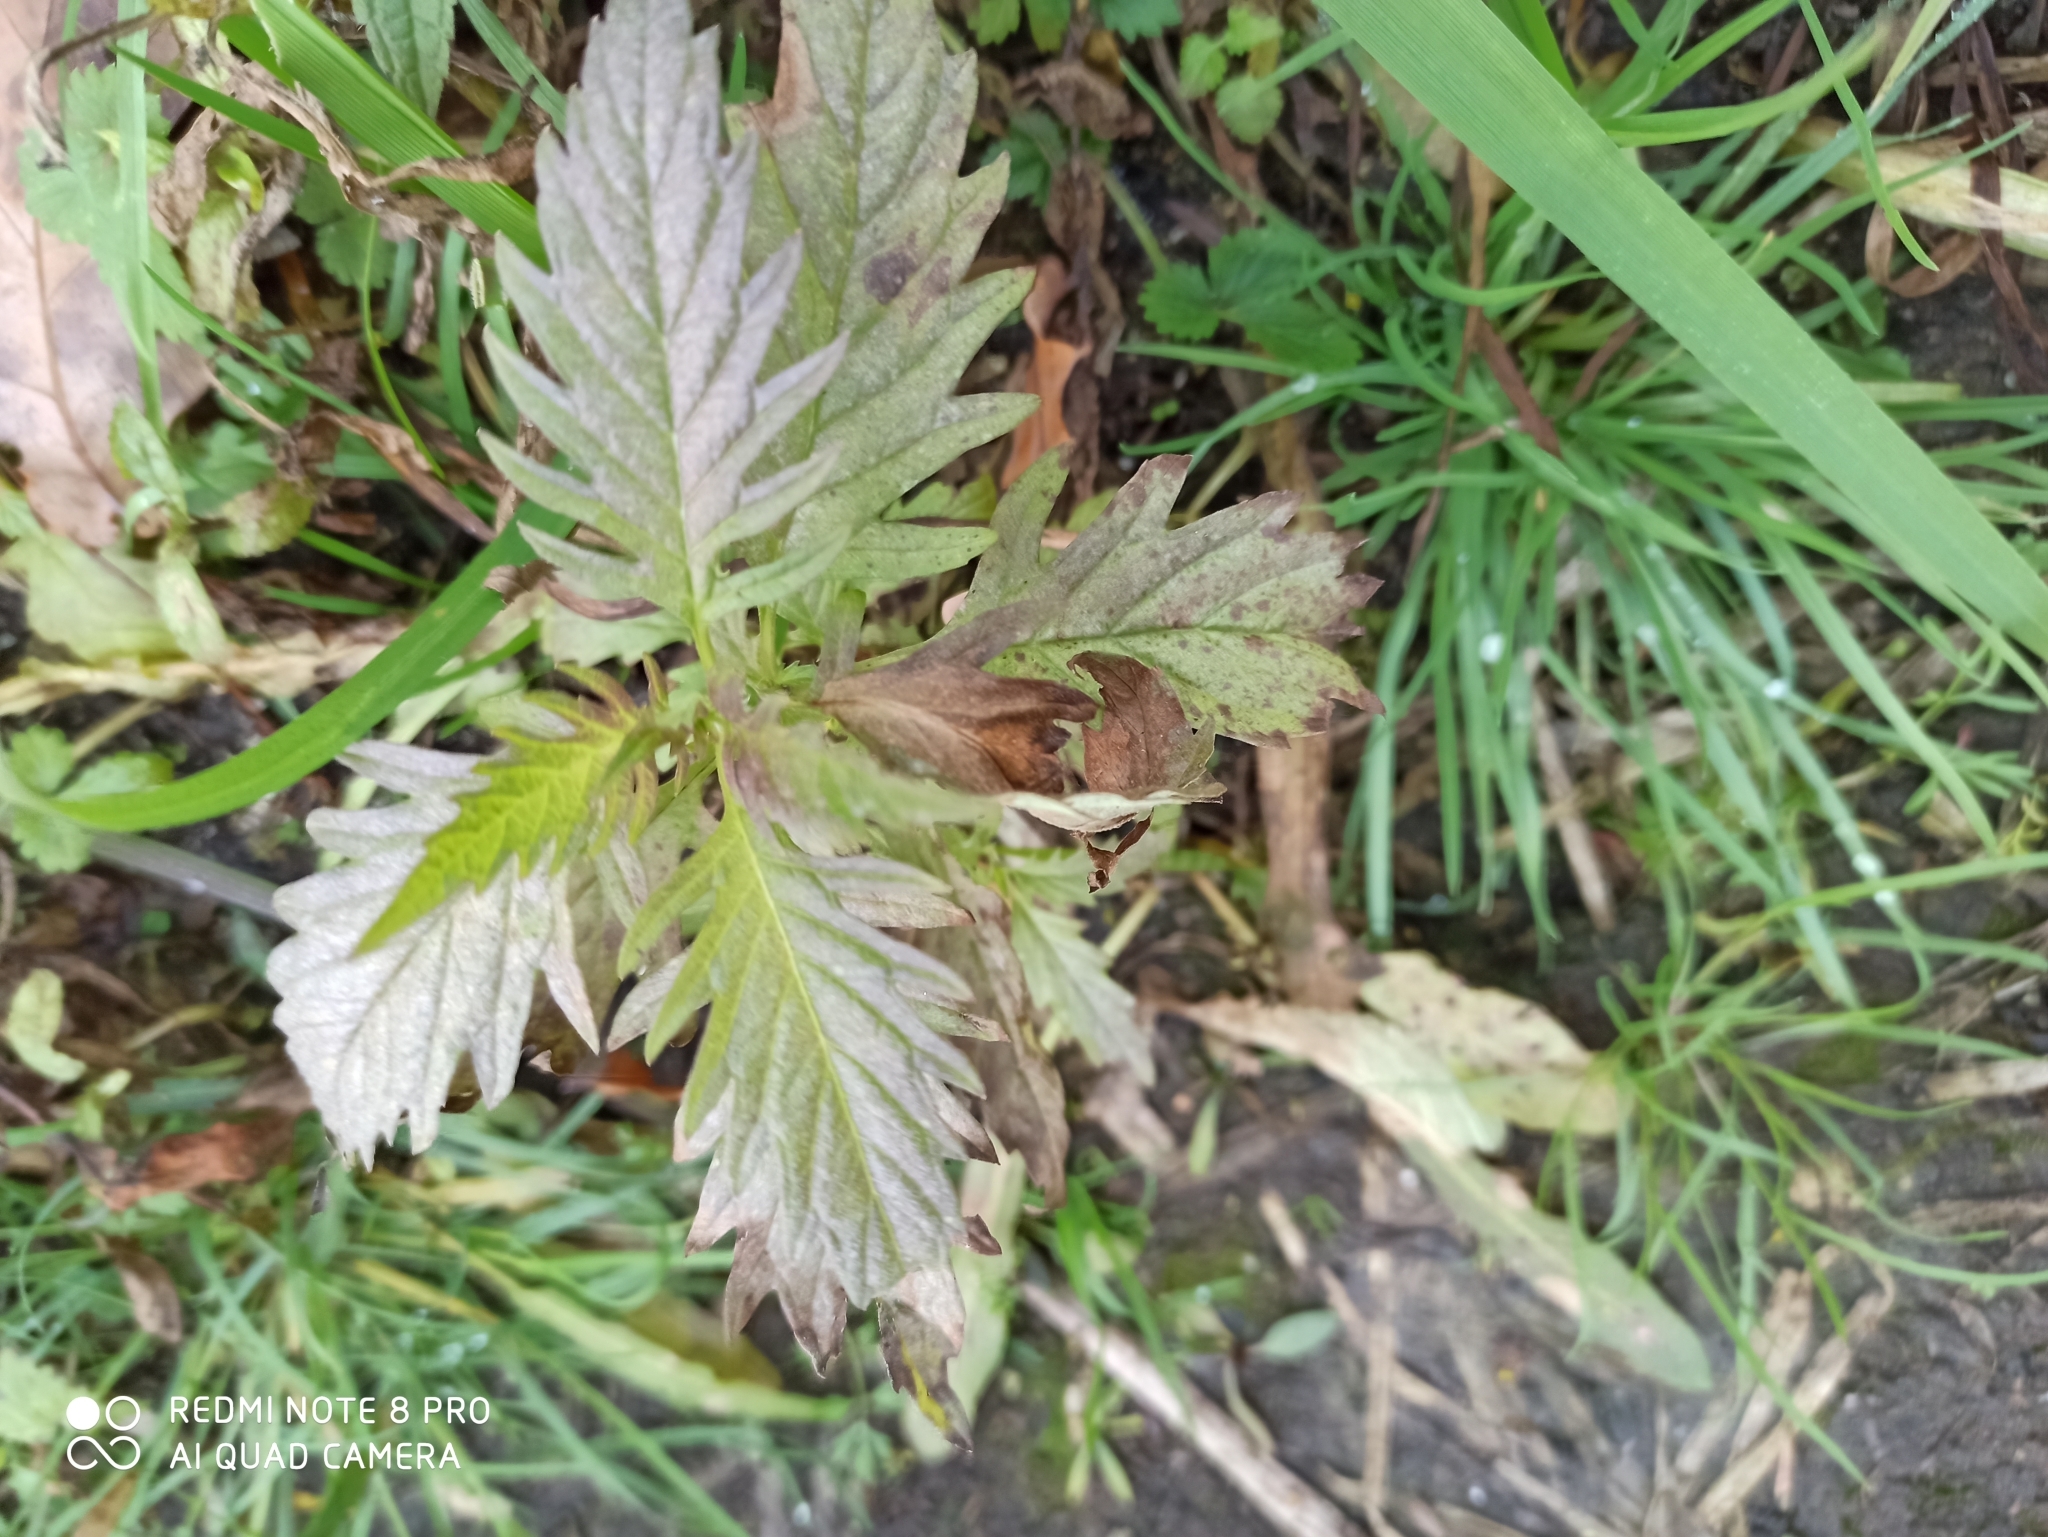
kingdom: Plantae
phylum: Tracheophyta
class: Magnoliopsida
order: Lamiales
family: Lamiaceae
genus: Lycopus
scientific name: Lycopus europaeus
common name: European bugleweed
